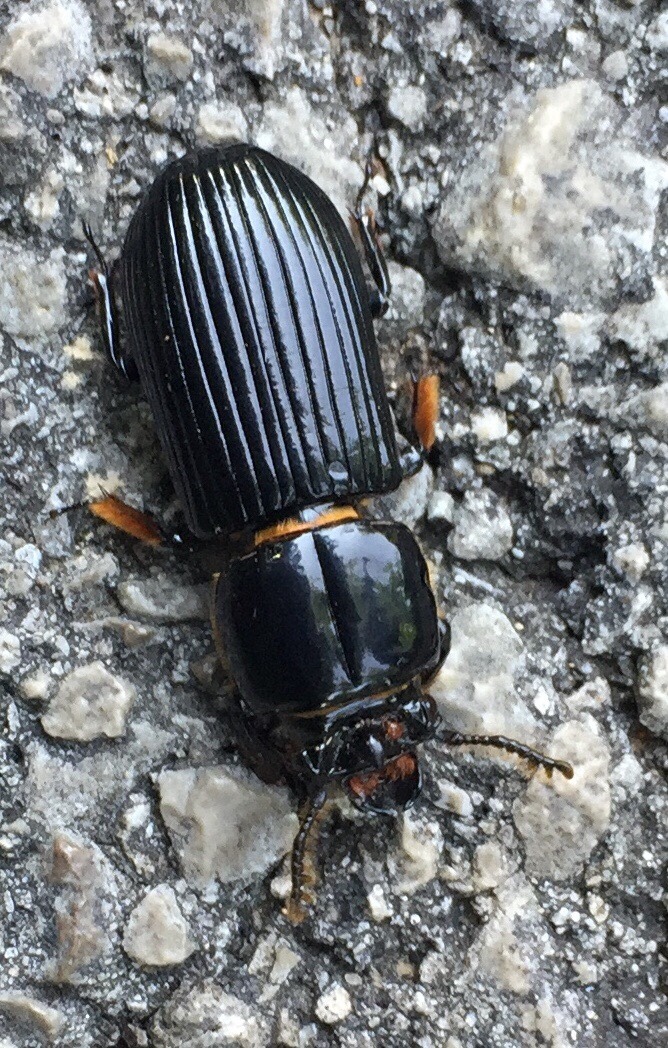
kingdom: Animalia
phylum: Arthropoda
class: Insecta
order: Coleoptera
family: Passalidae
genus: Odontotaenius
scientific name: Odontotaenius disjunctus
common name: Patent leather beetle
